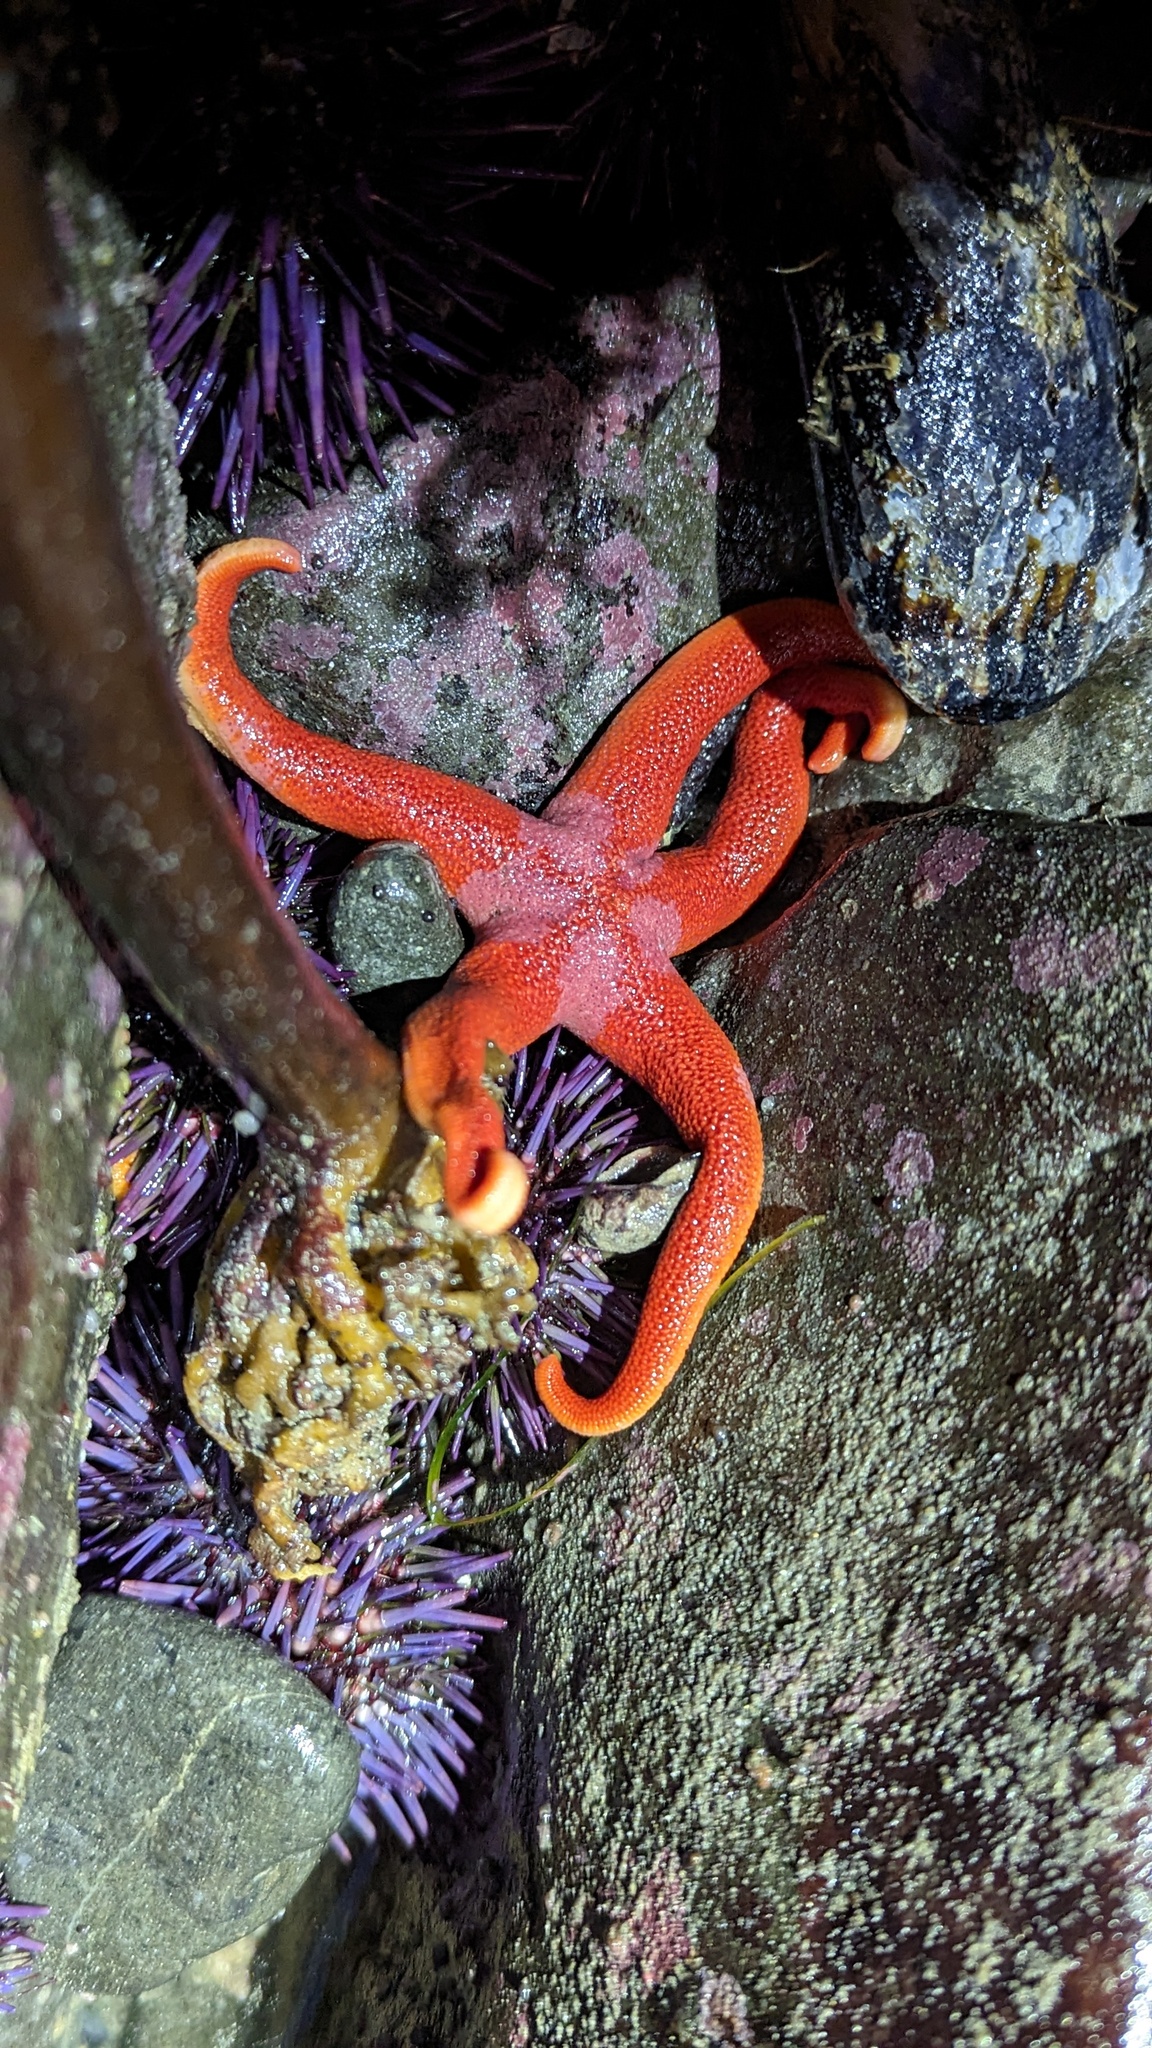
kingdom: Animalia
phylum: Echinodermata
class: Asteroidea
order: Spinulosida
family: Echinasteridae
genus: Henricia
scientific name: Henricia
